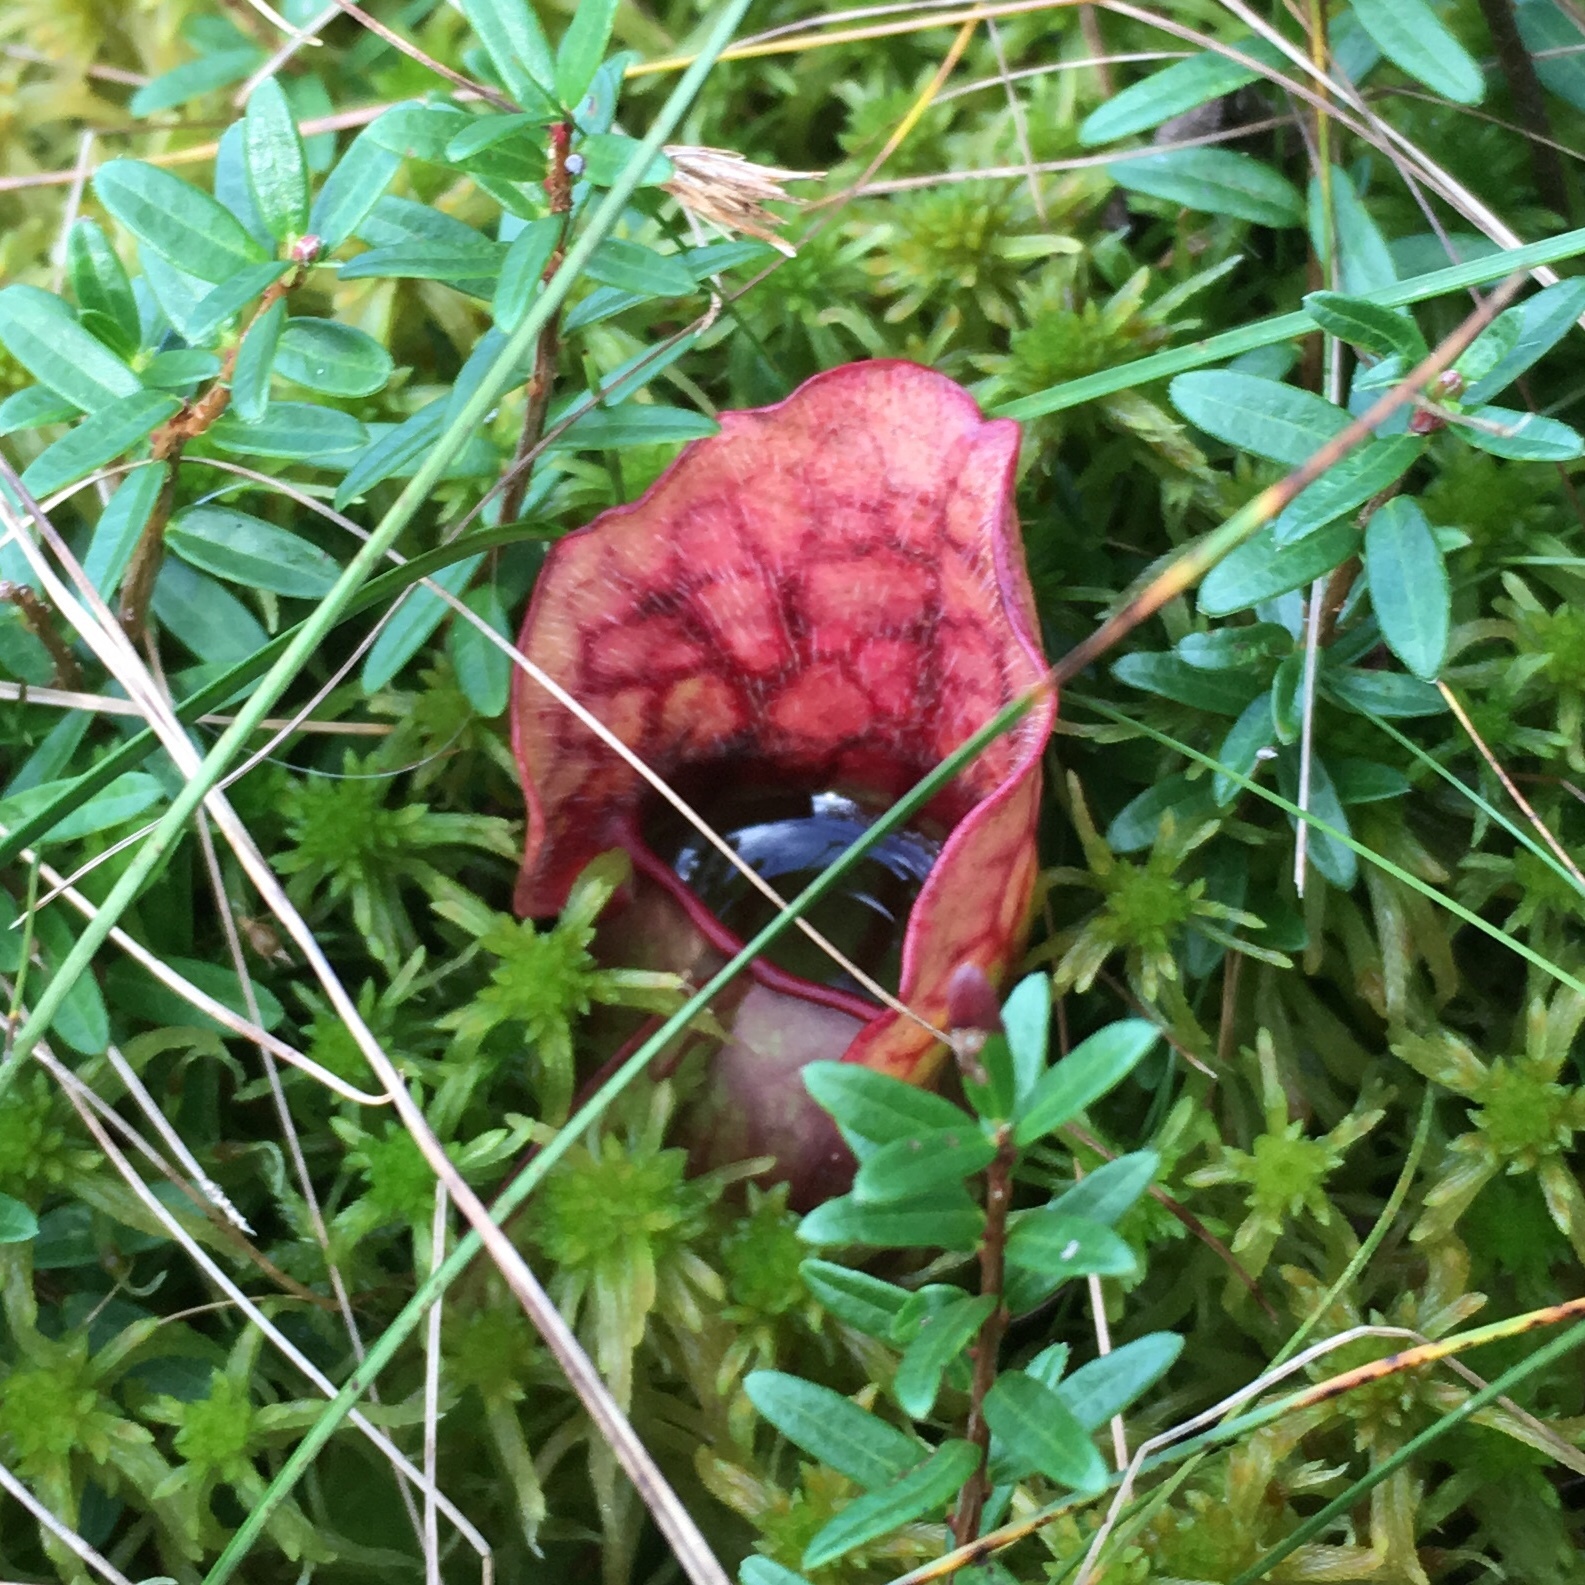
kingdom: Plantae
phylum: Tracheophyta
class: Magnoliopsida
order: Ericales
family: Sarraceniaceae
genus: Sarracenia
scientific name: Sarracenia purpurea
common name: Pitcherplant
